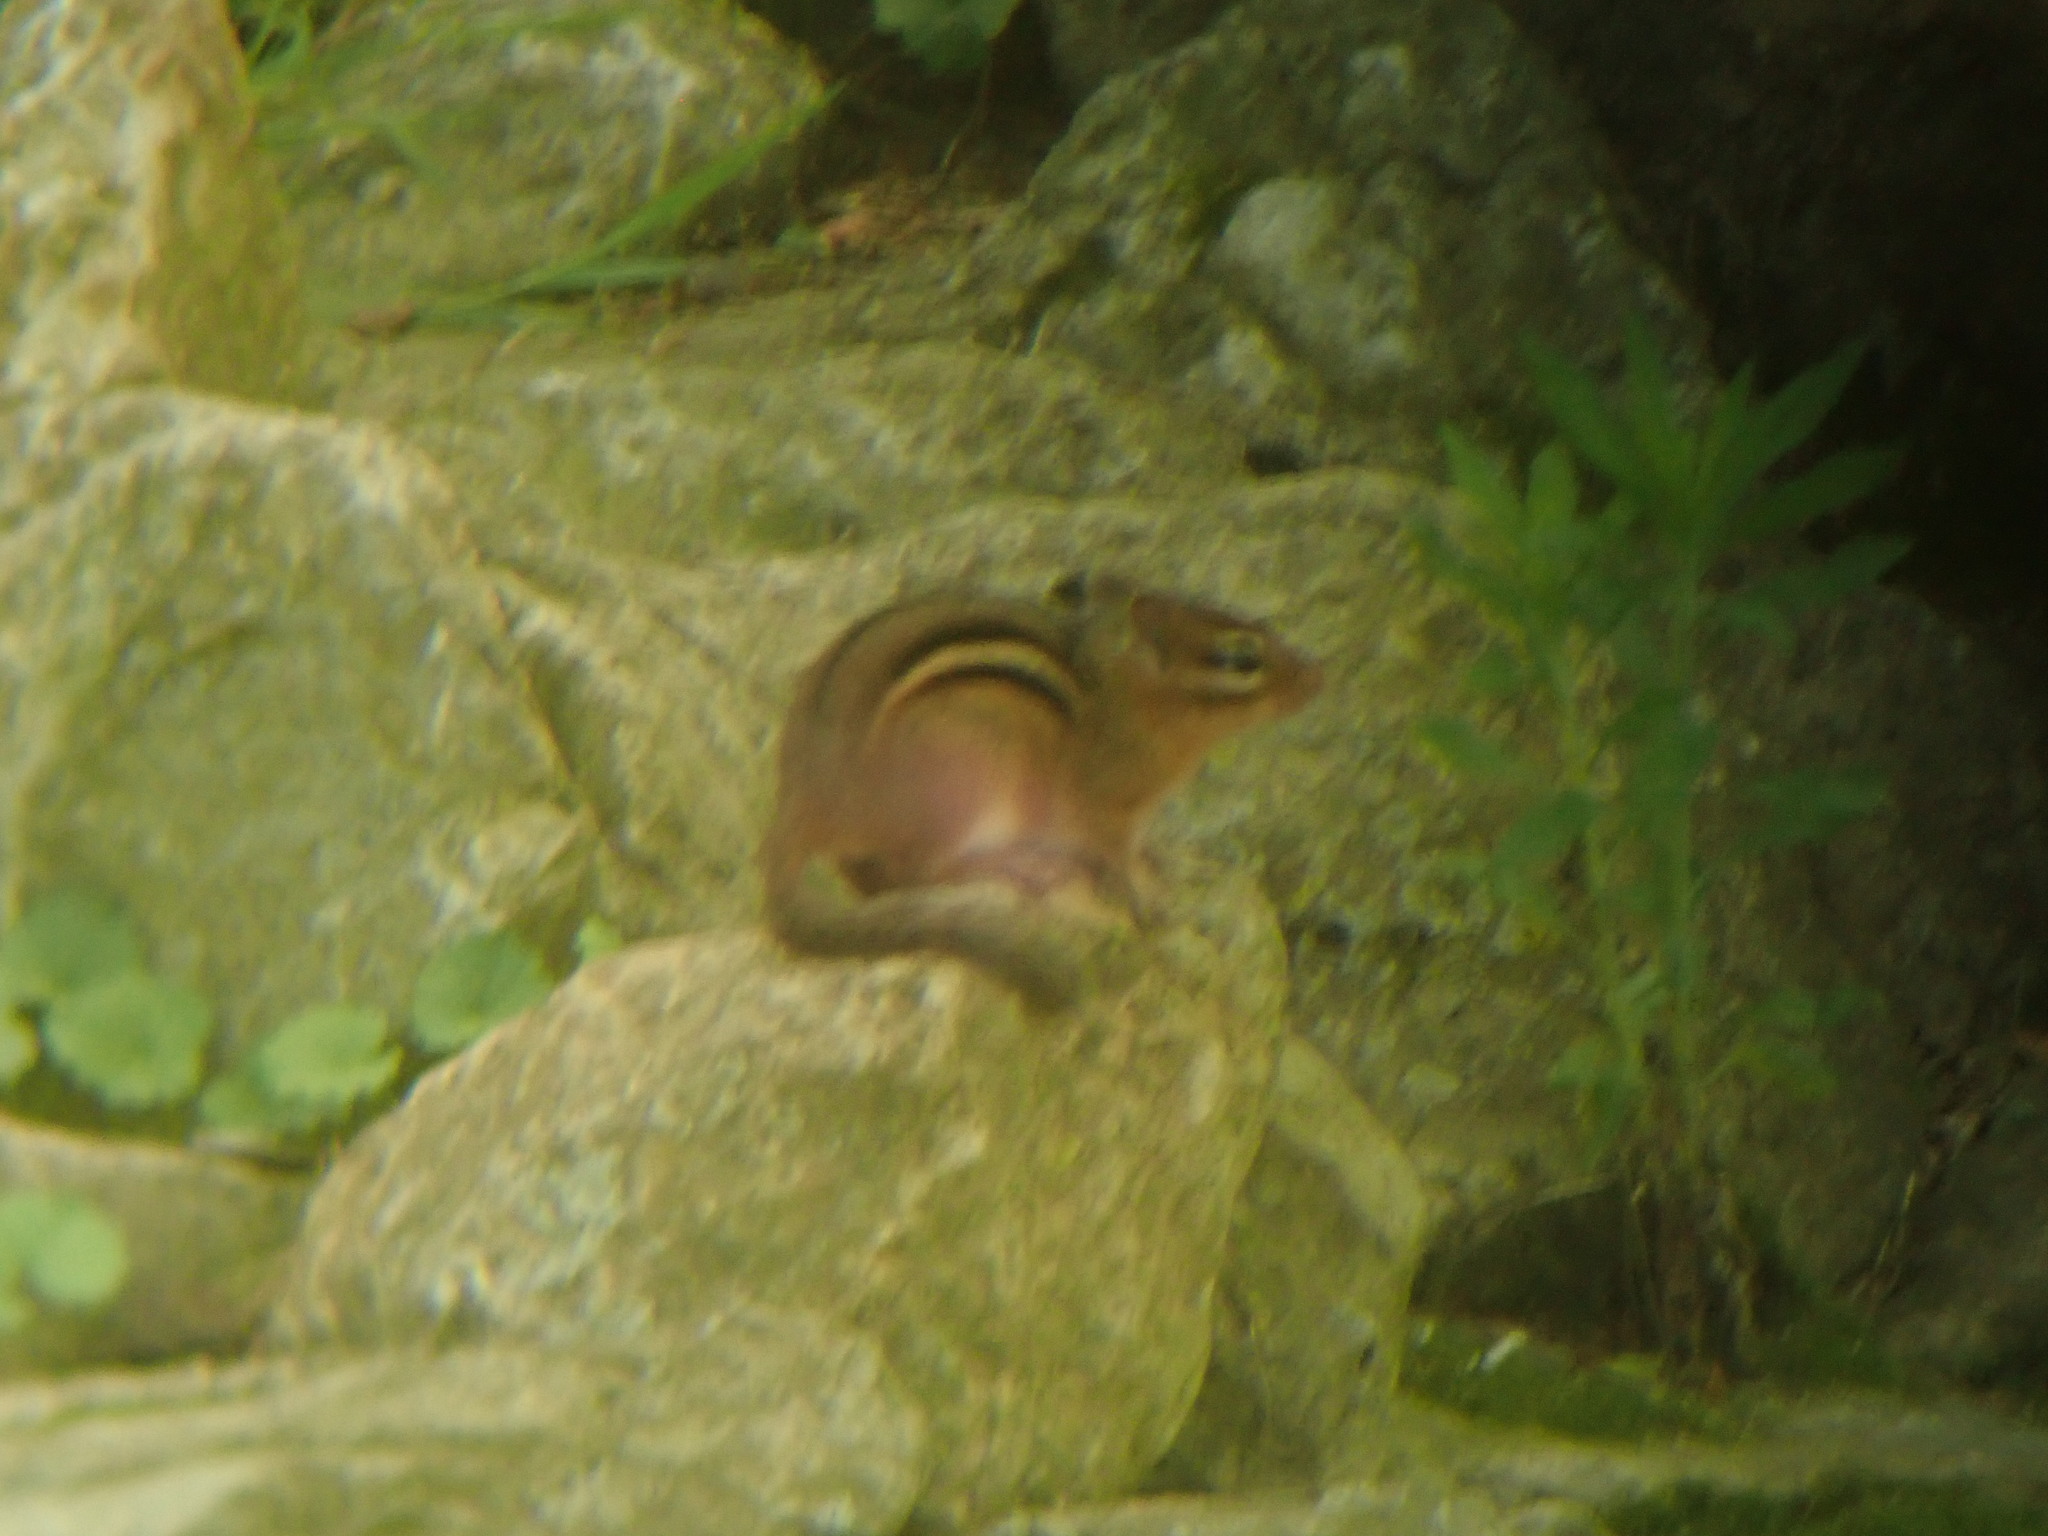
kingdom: Animalia
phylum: Chordata
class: Mammalia
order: Rodentia
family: Sciuridae
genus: Tamias
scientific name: Tamias striatus
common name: Eastern chipmunk
